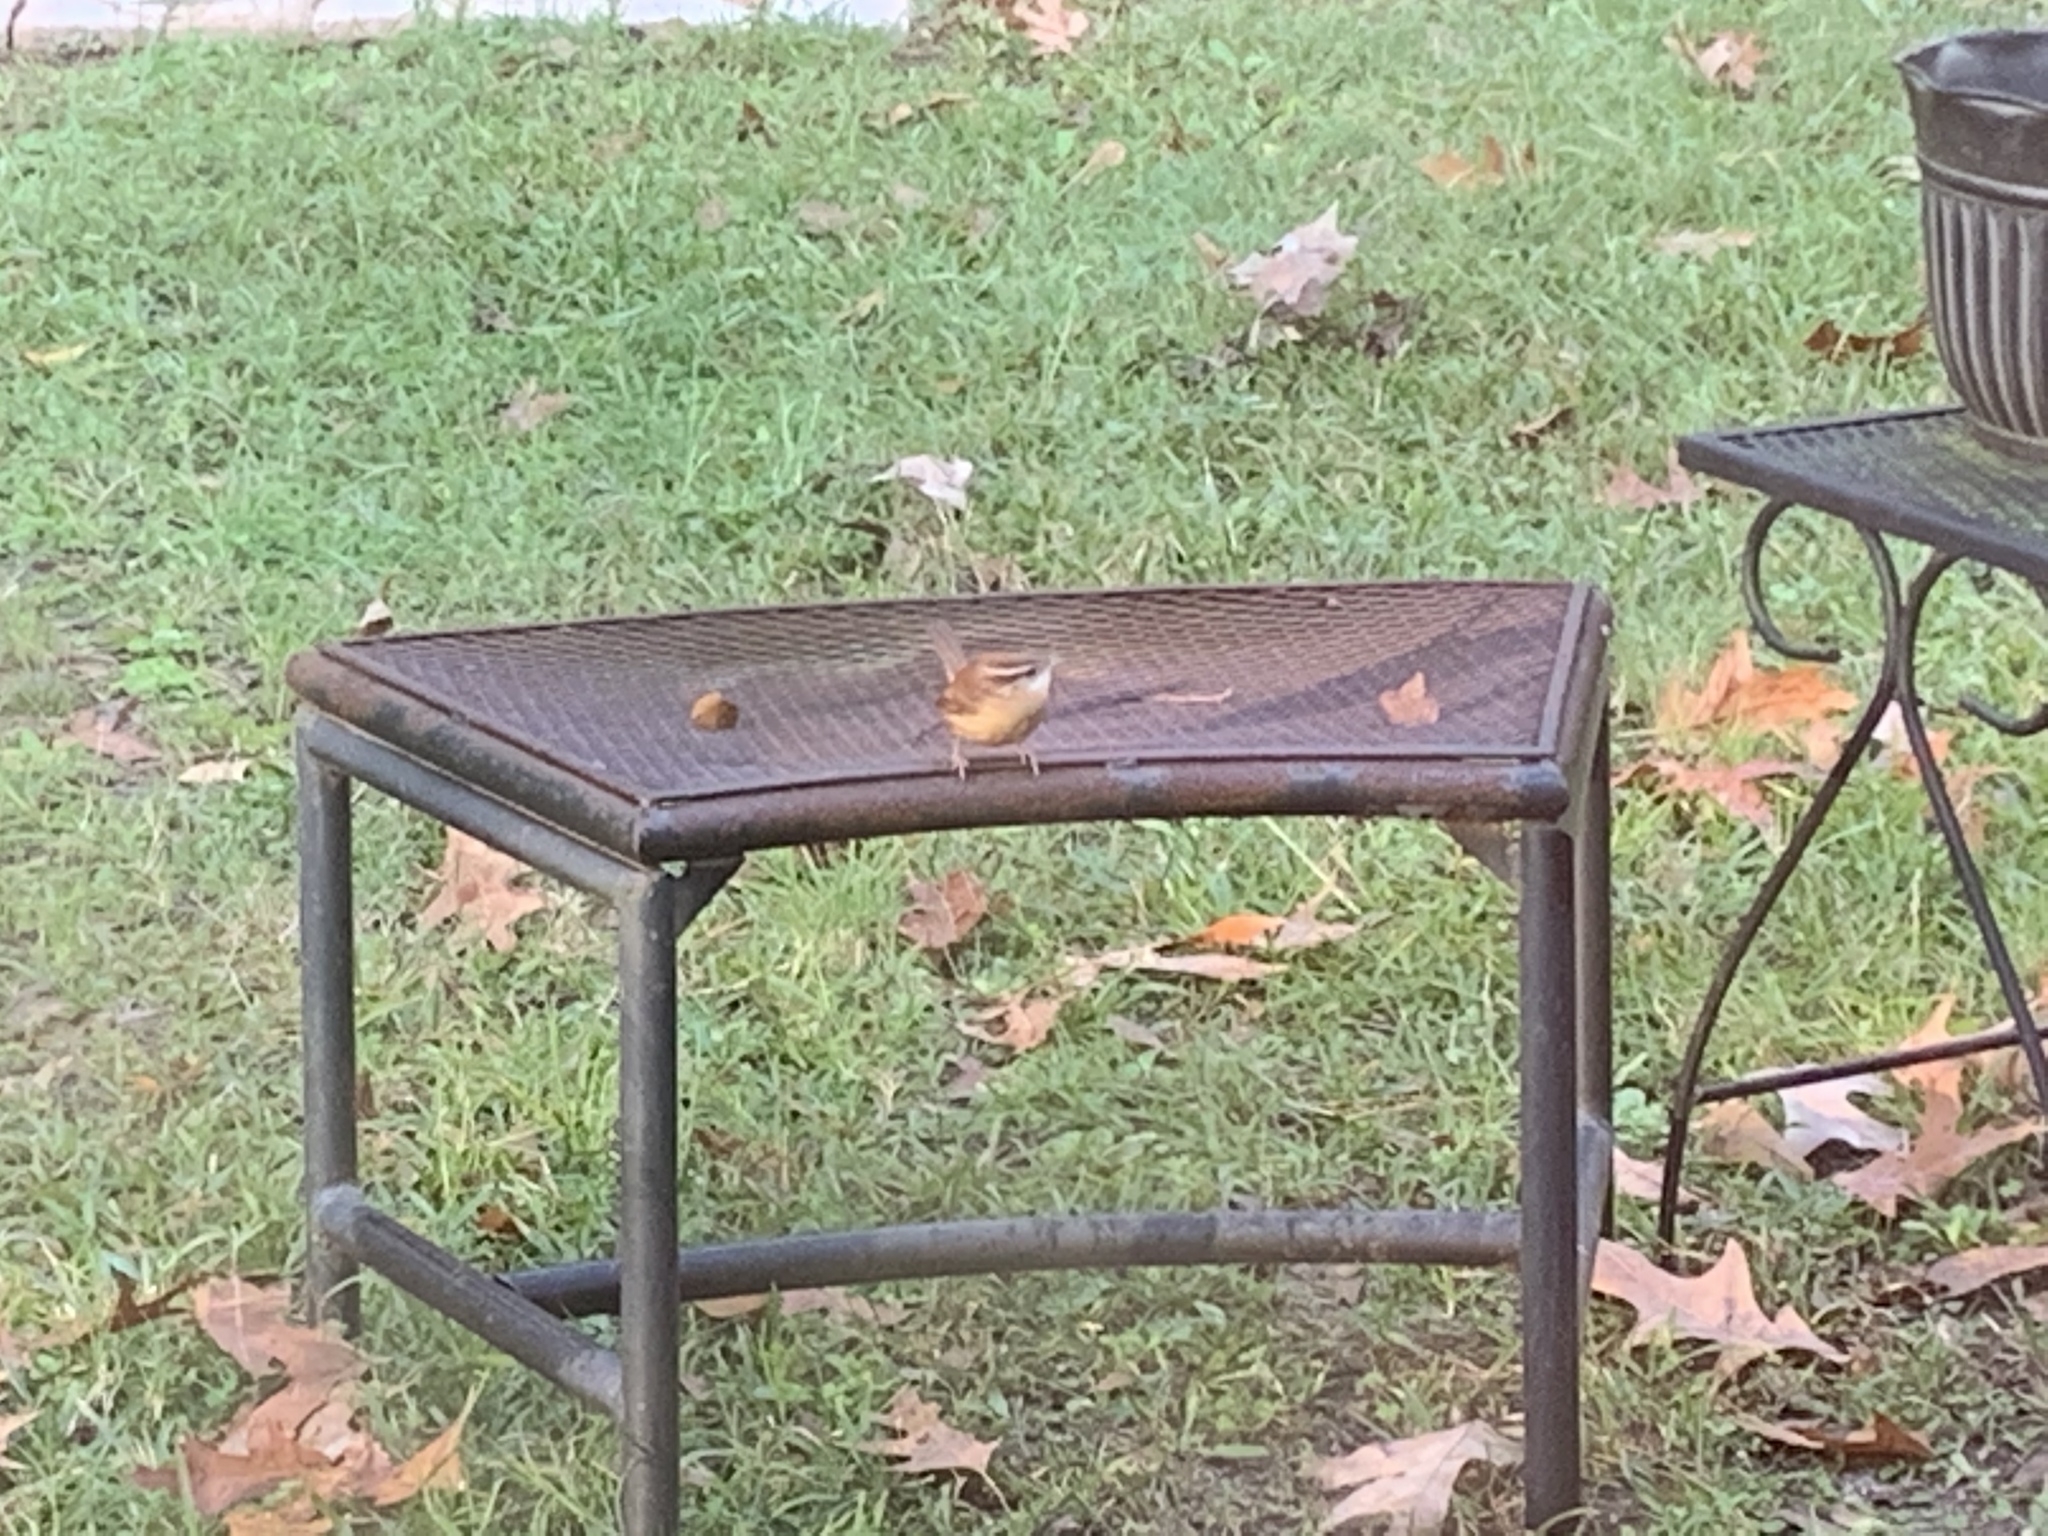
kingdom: Animalia
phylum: Chordata
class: Aves
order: Passeriformes
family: Troglodytidae
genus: Thryothorus
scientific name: Thryothorus ludovicianus
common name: Carolina wren
